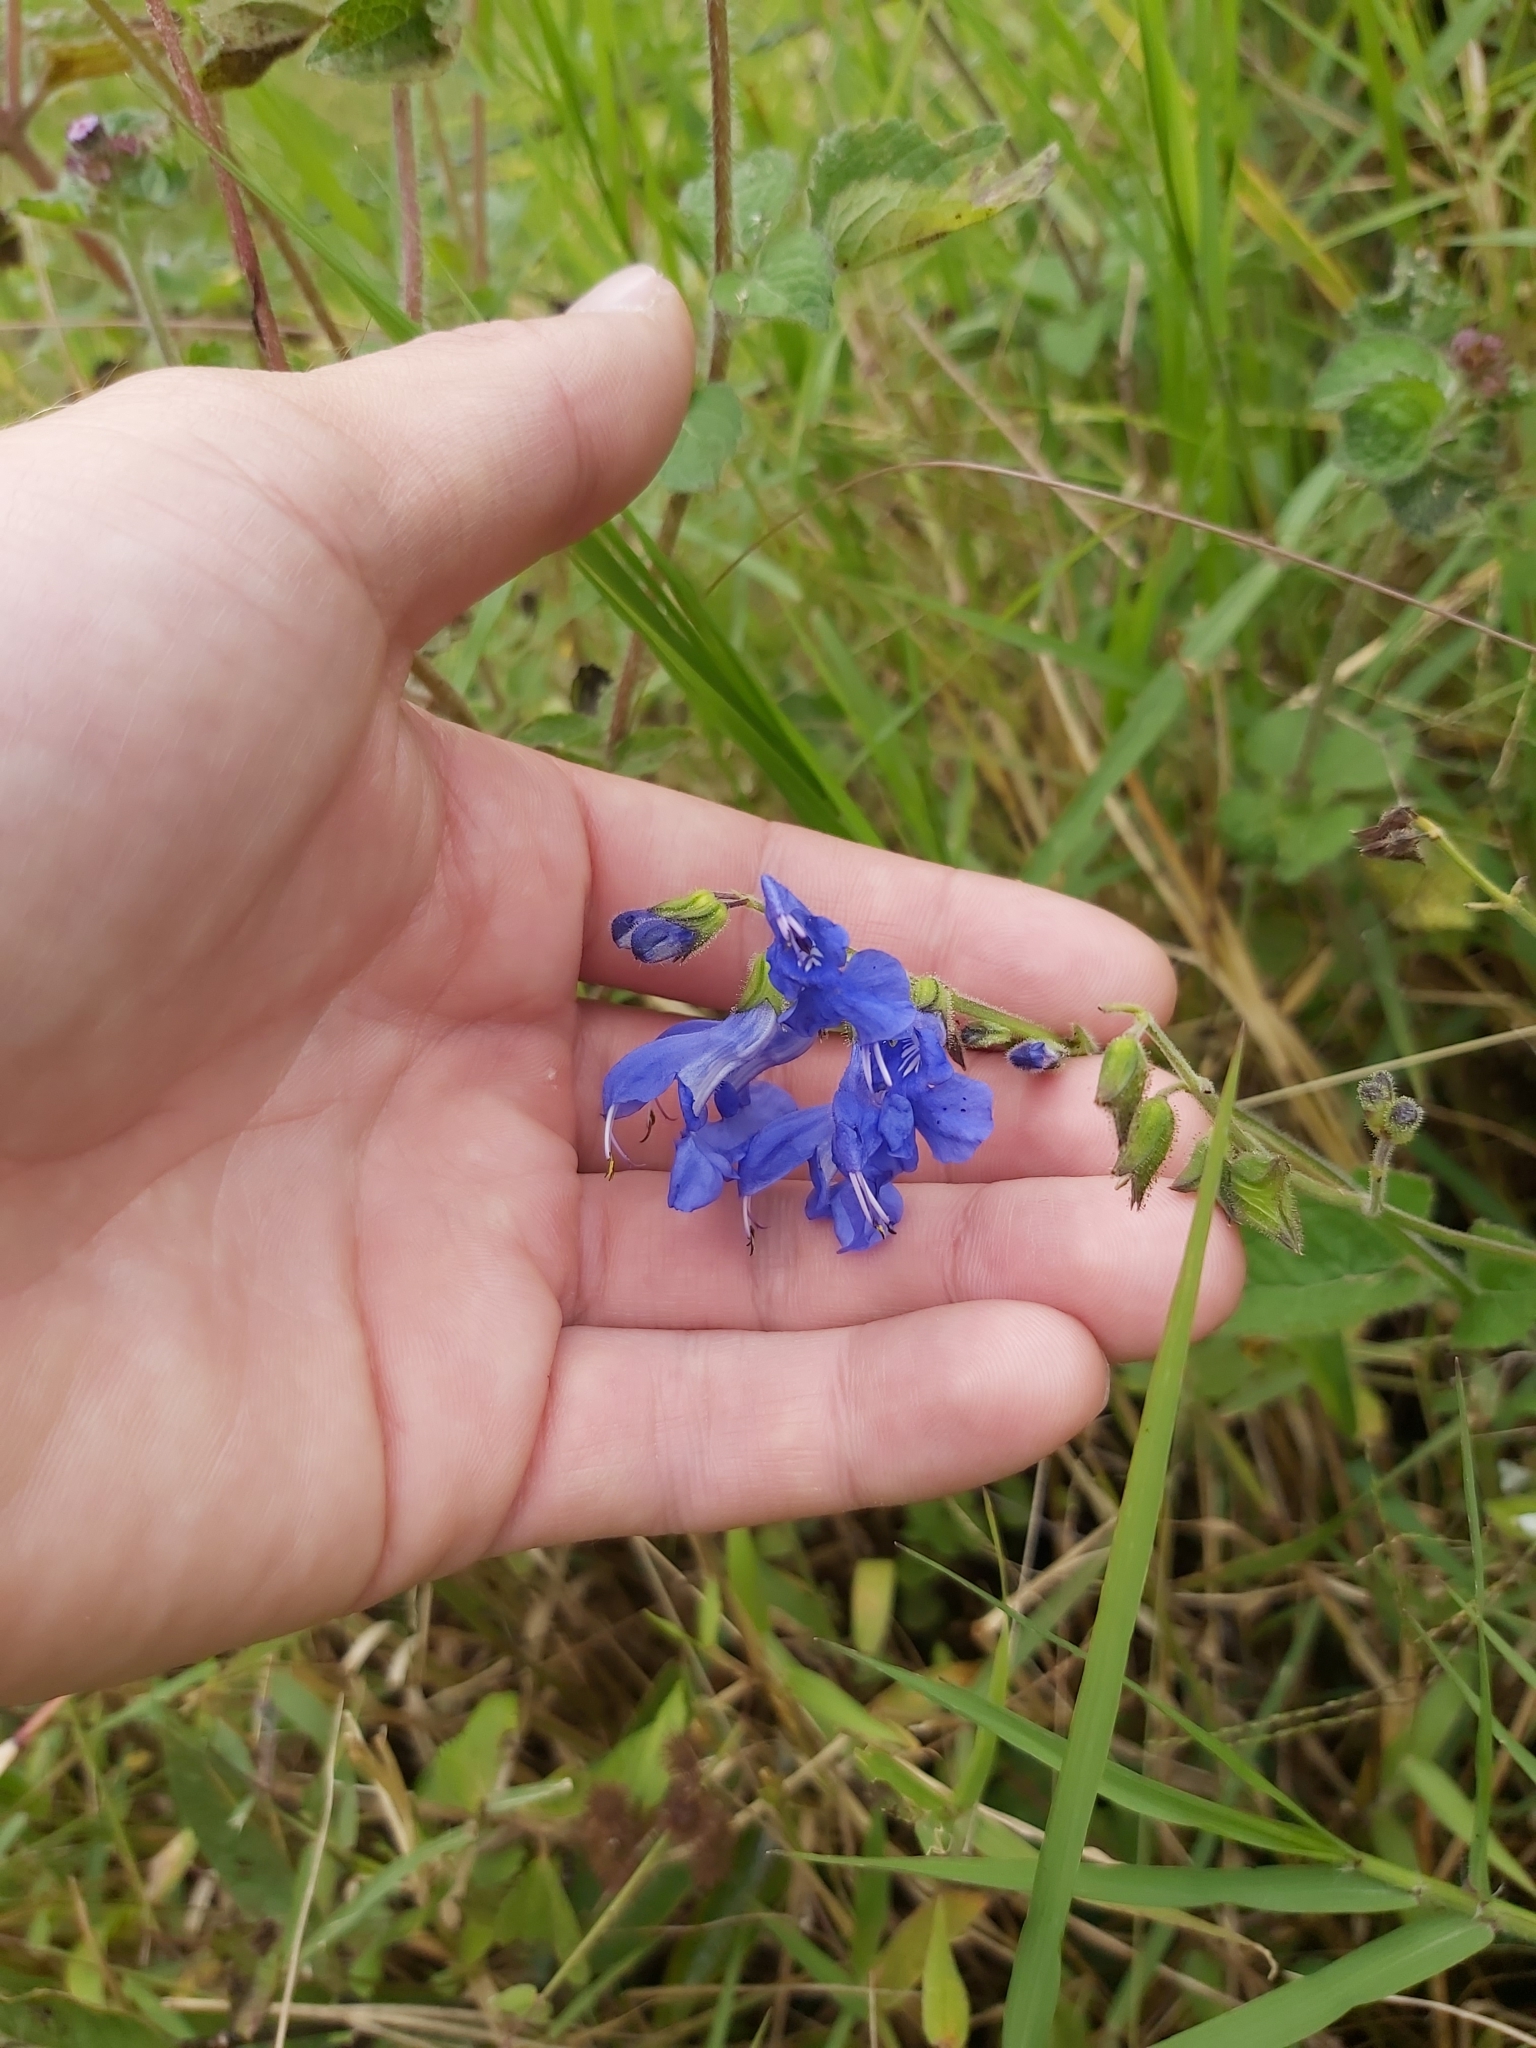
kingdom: Plantae
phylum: Tracheophyta
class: Magnoliopsida
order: Lamiales
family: Lamiaceae
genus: Salvia
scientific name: Salvia scutellarioides
